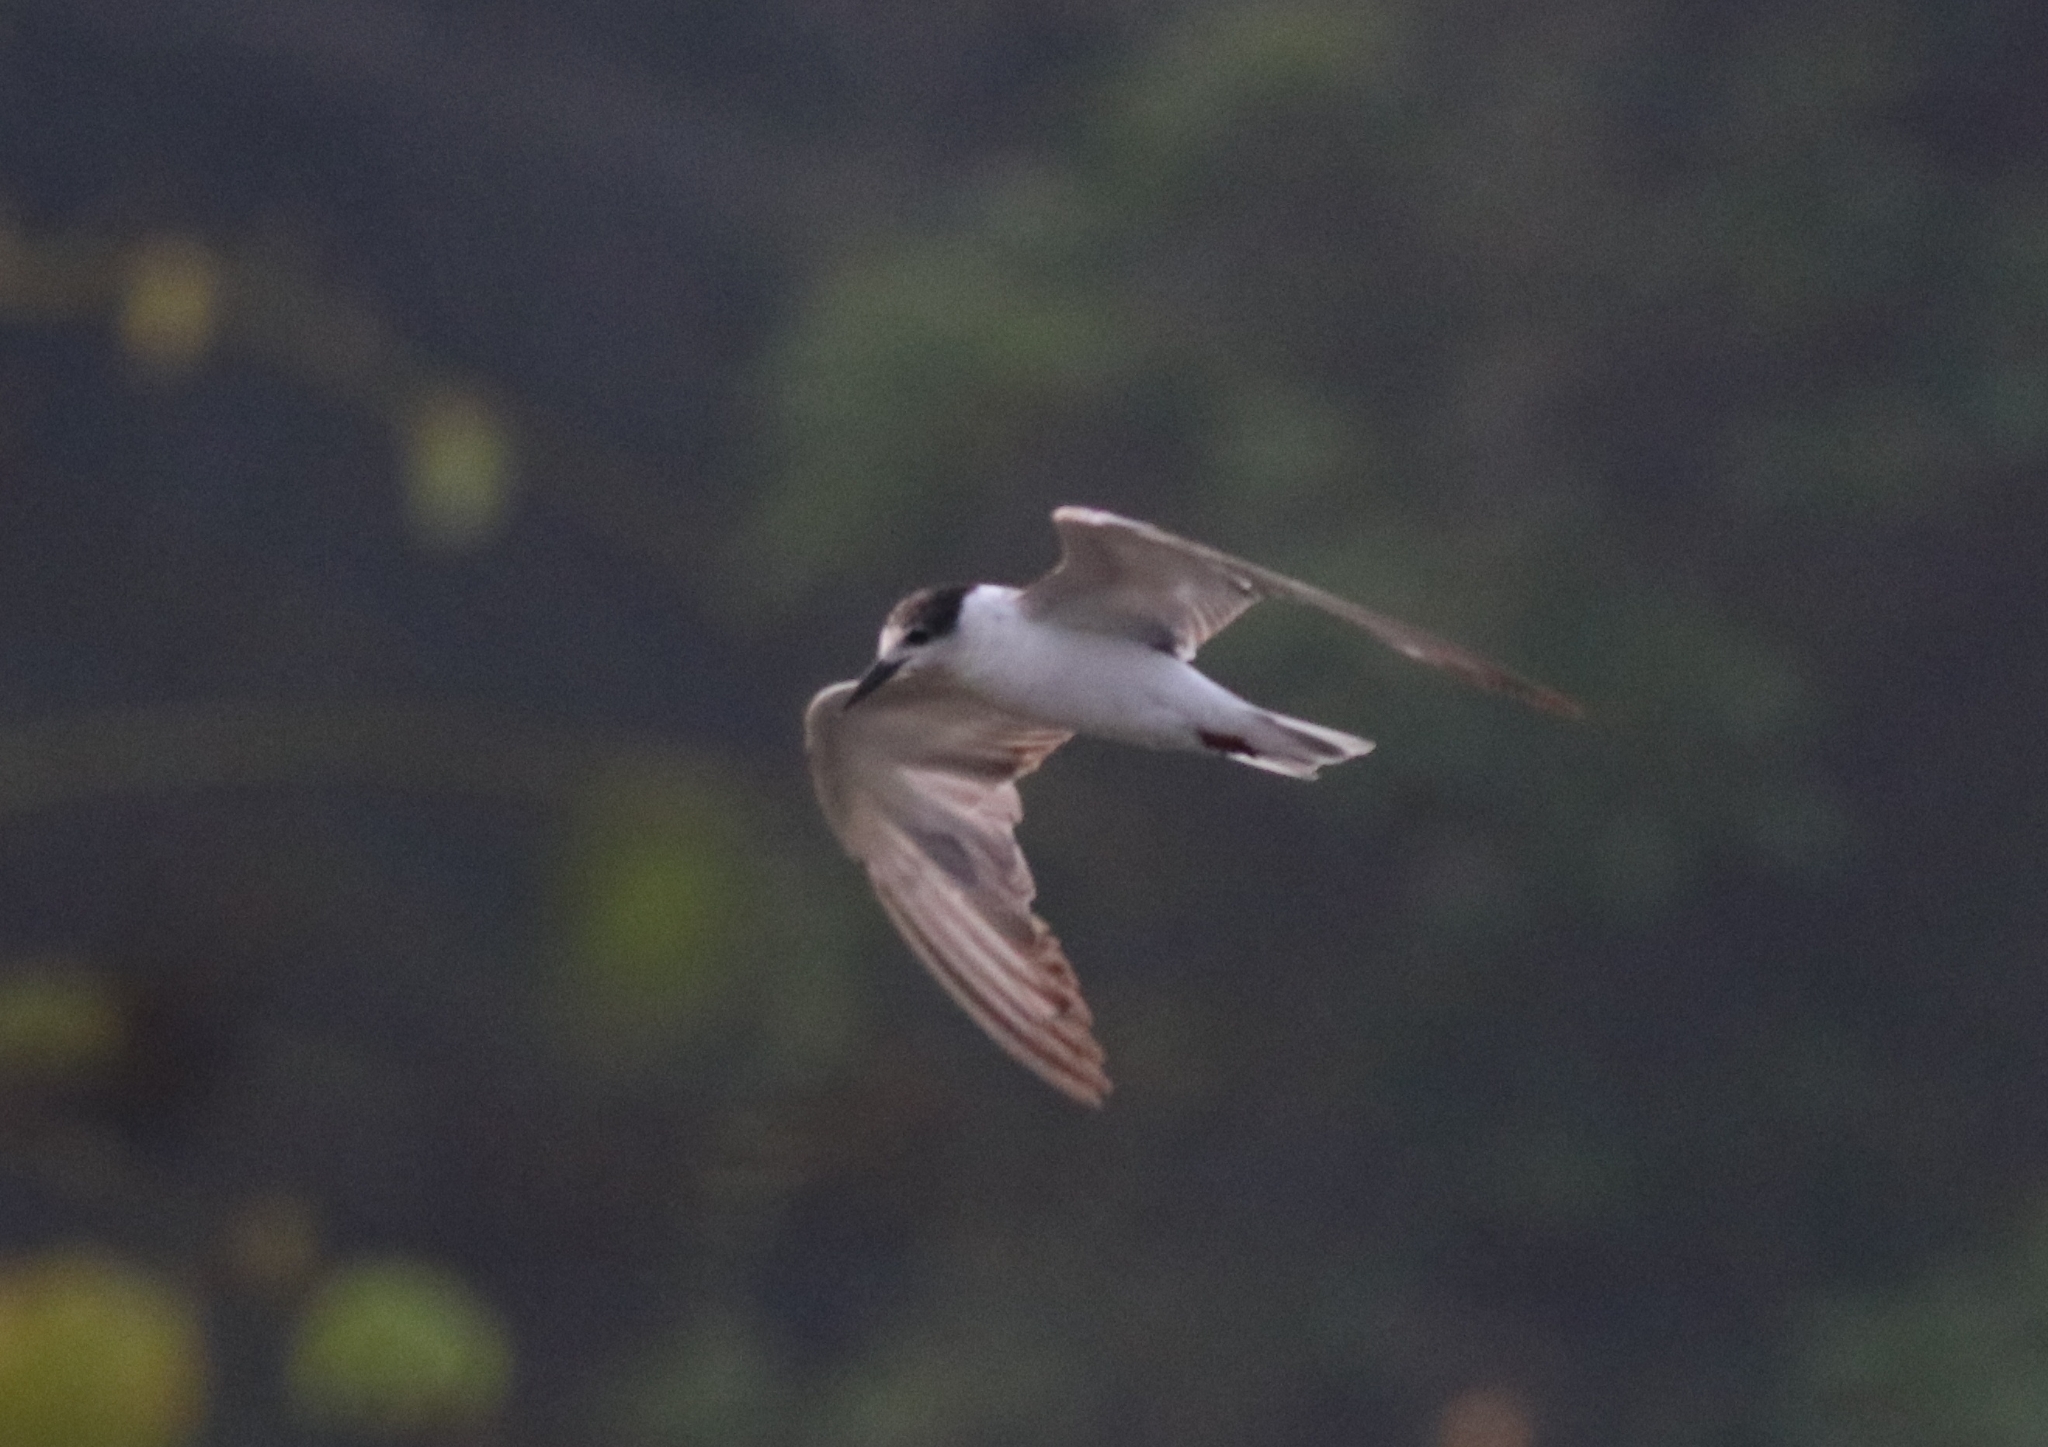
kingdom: Animalia
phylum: Chordata
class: Aves
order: Charadriiformes
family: Laridae
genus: Chlidonias
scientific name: Chlidonias hybrida
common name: Whiskered tern
